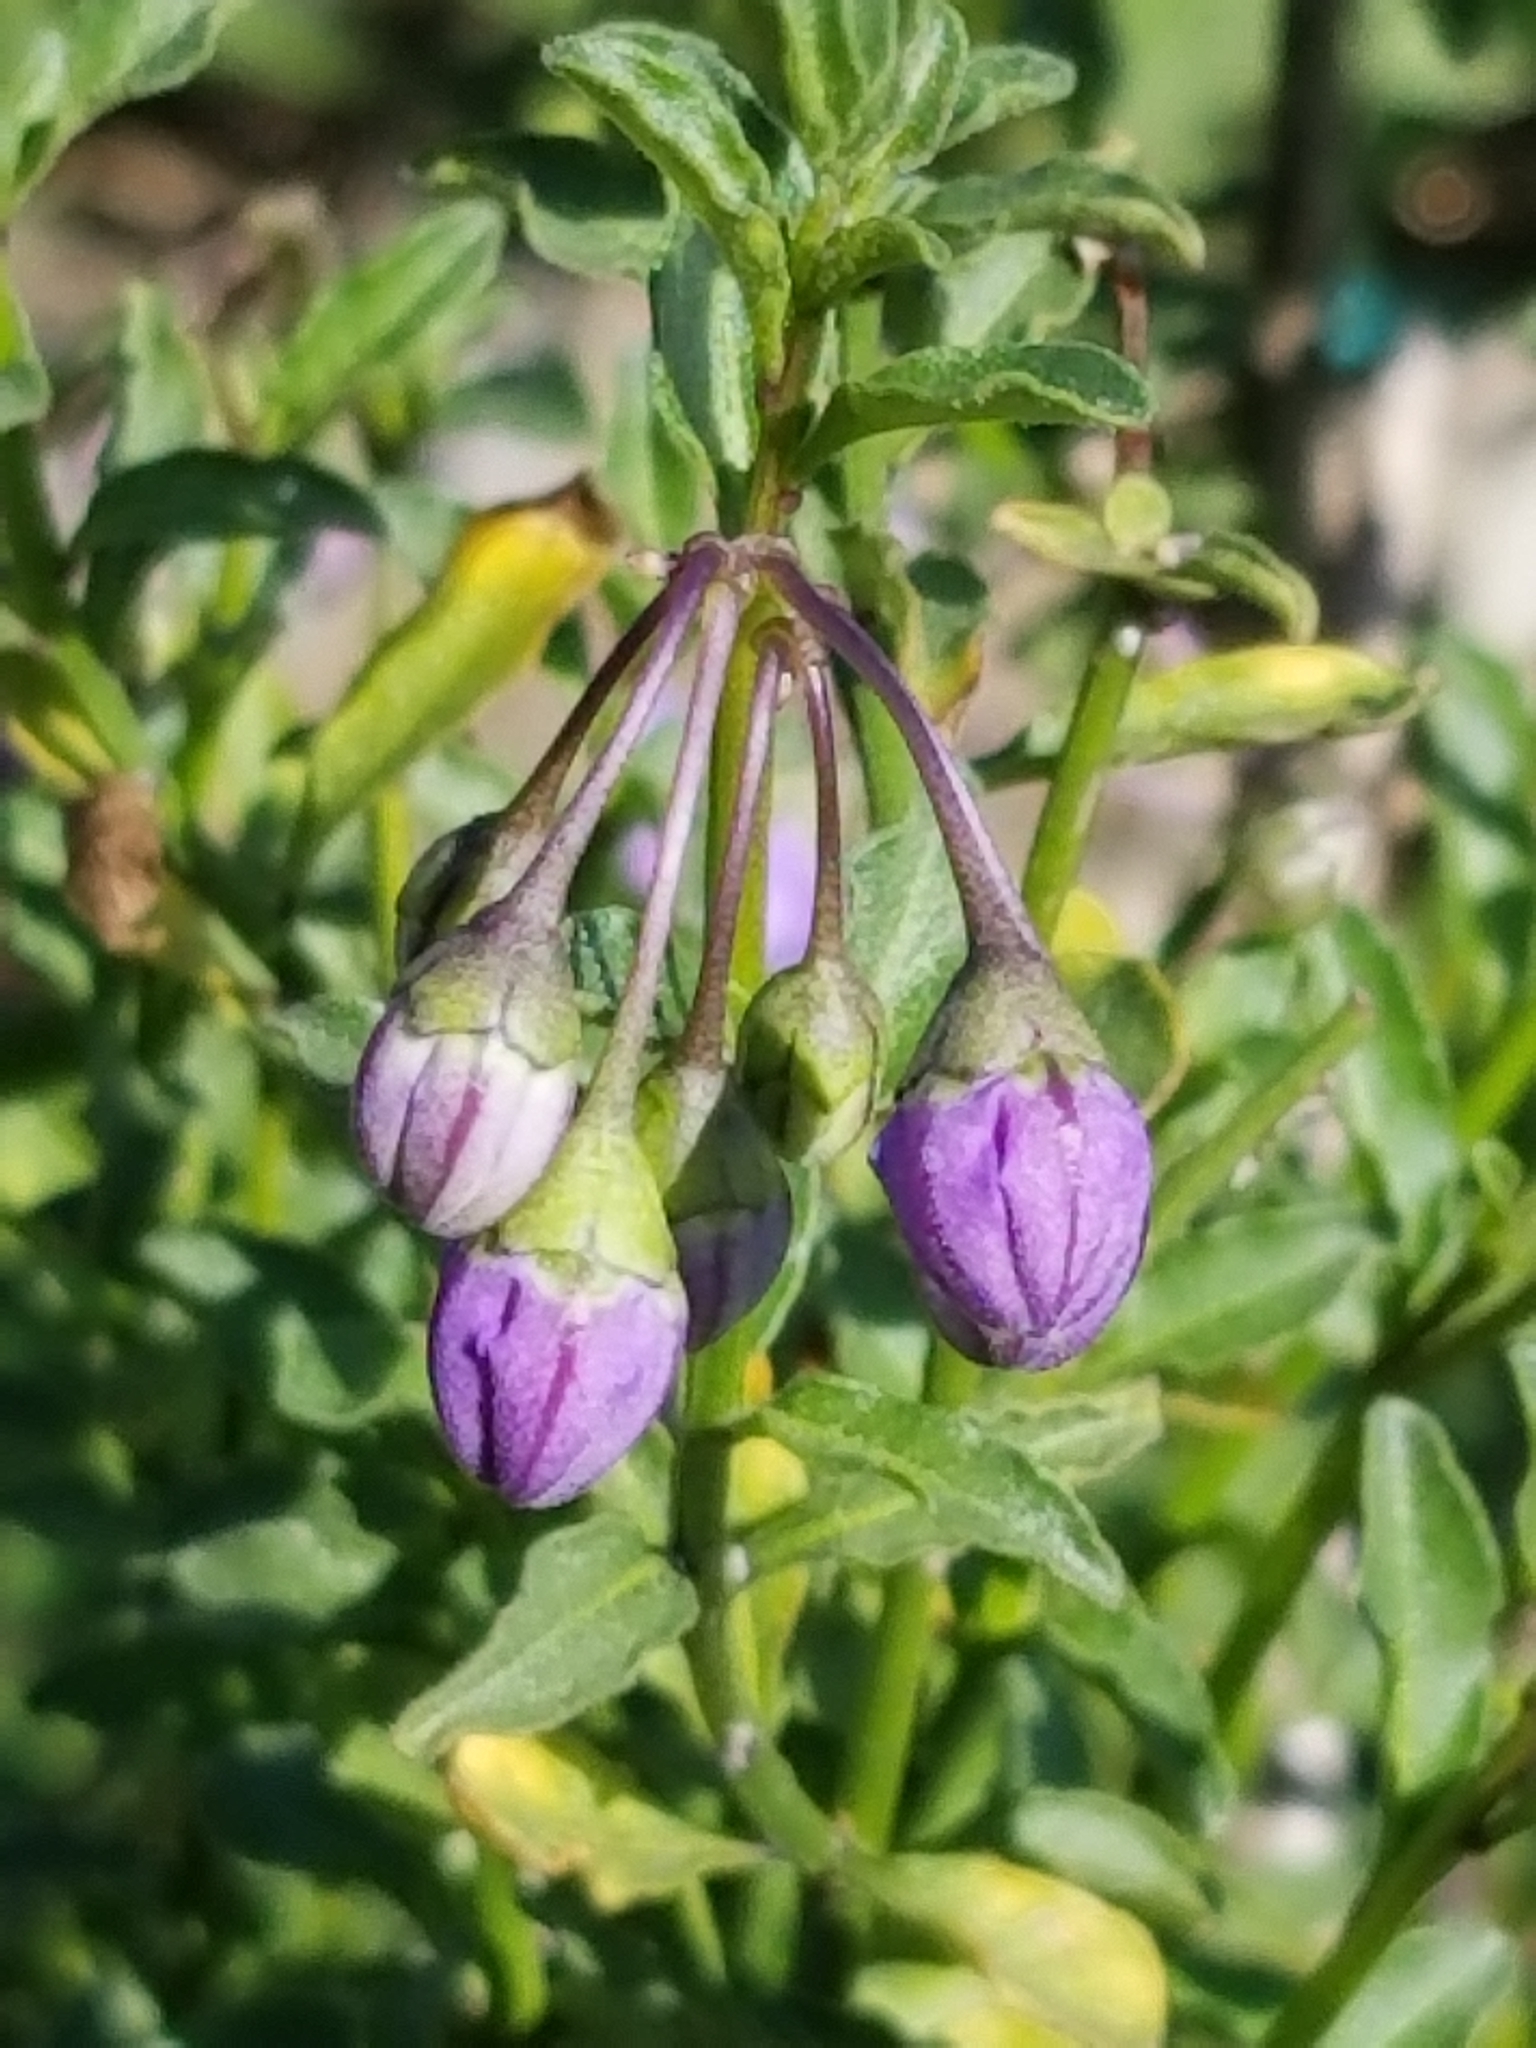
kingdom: Plantae
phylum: Tracheophyta
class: Magnoliopsida
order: Solanales
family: Solanaceae
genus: Solanum
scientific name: Solanum umbelliferum
